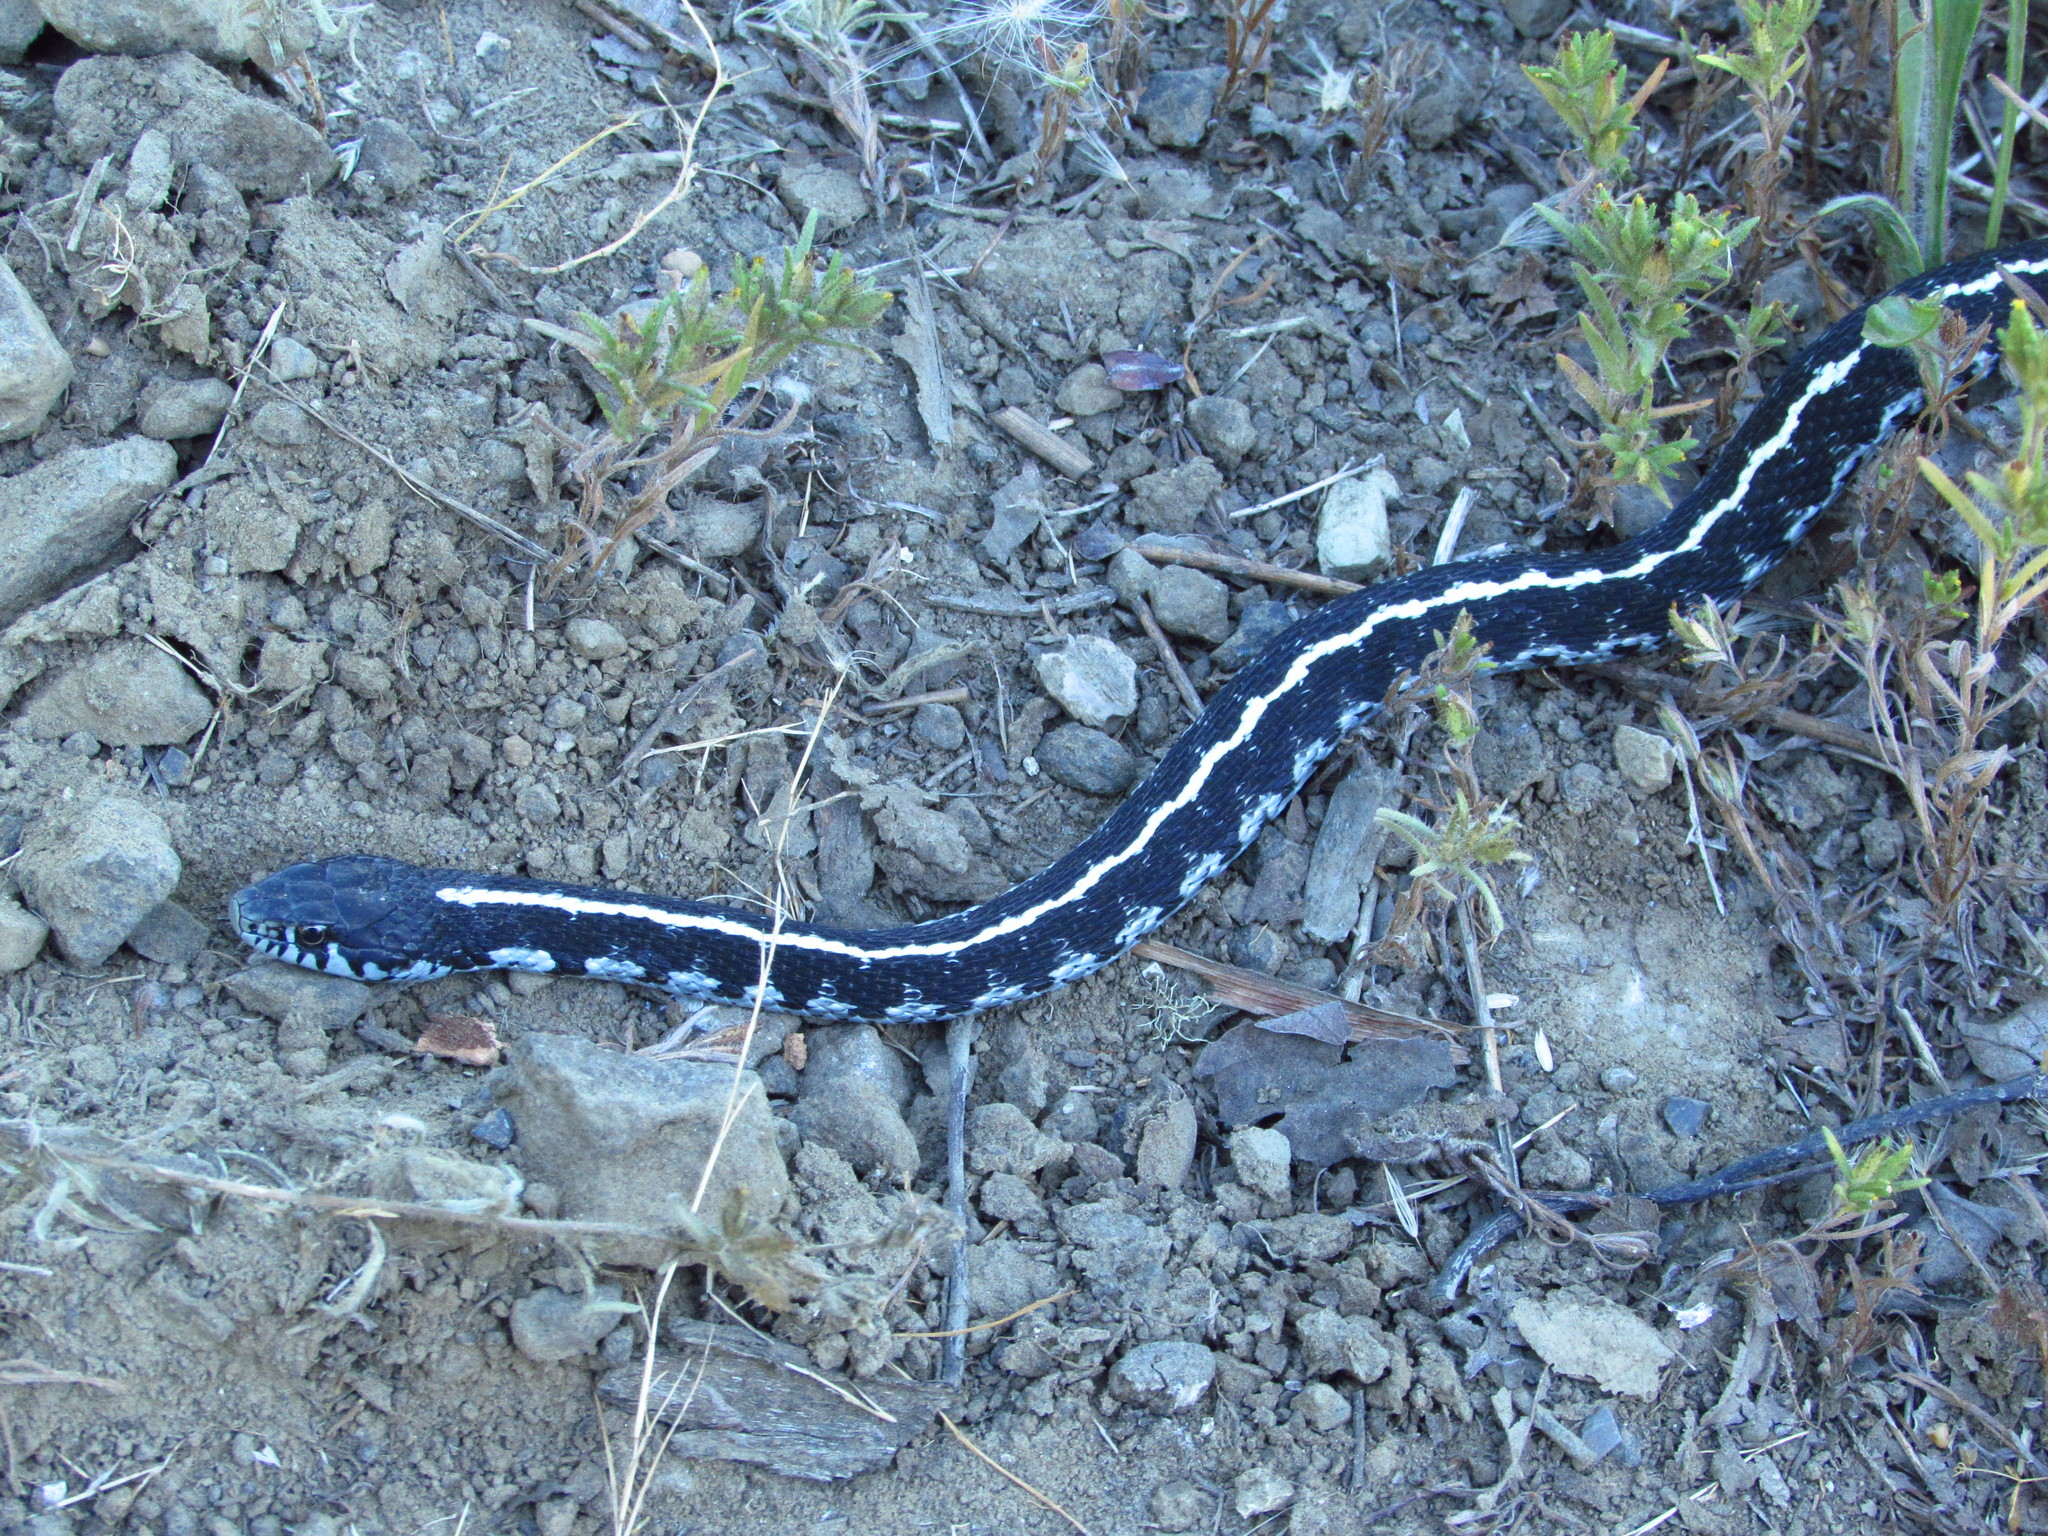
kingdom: Animalia
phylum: Chordata
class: Squamata
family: Colubridae
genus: Thamnophis
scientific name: Thamnophis elegans
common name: Western terrestrial garter snake
